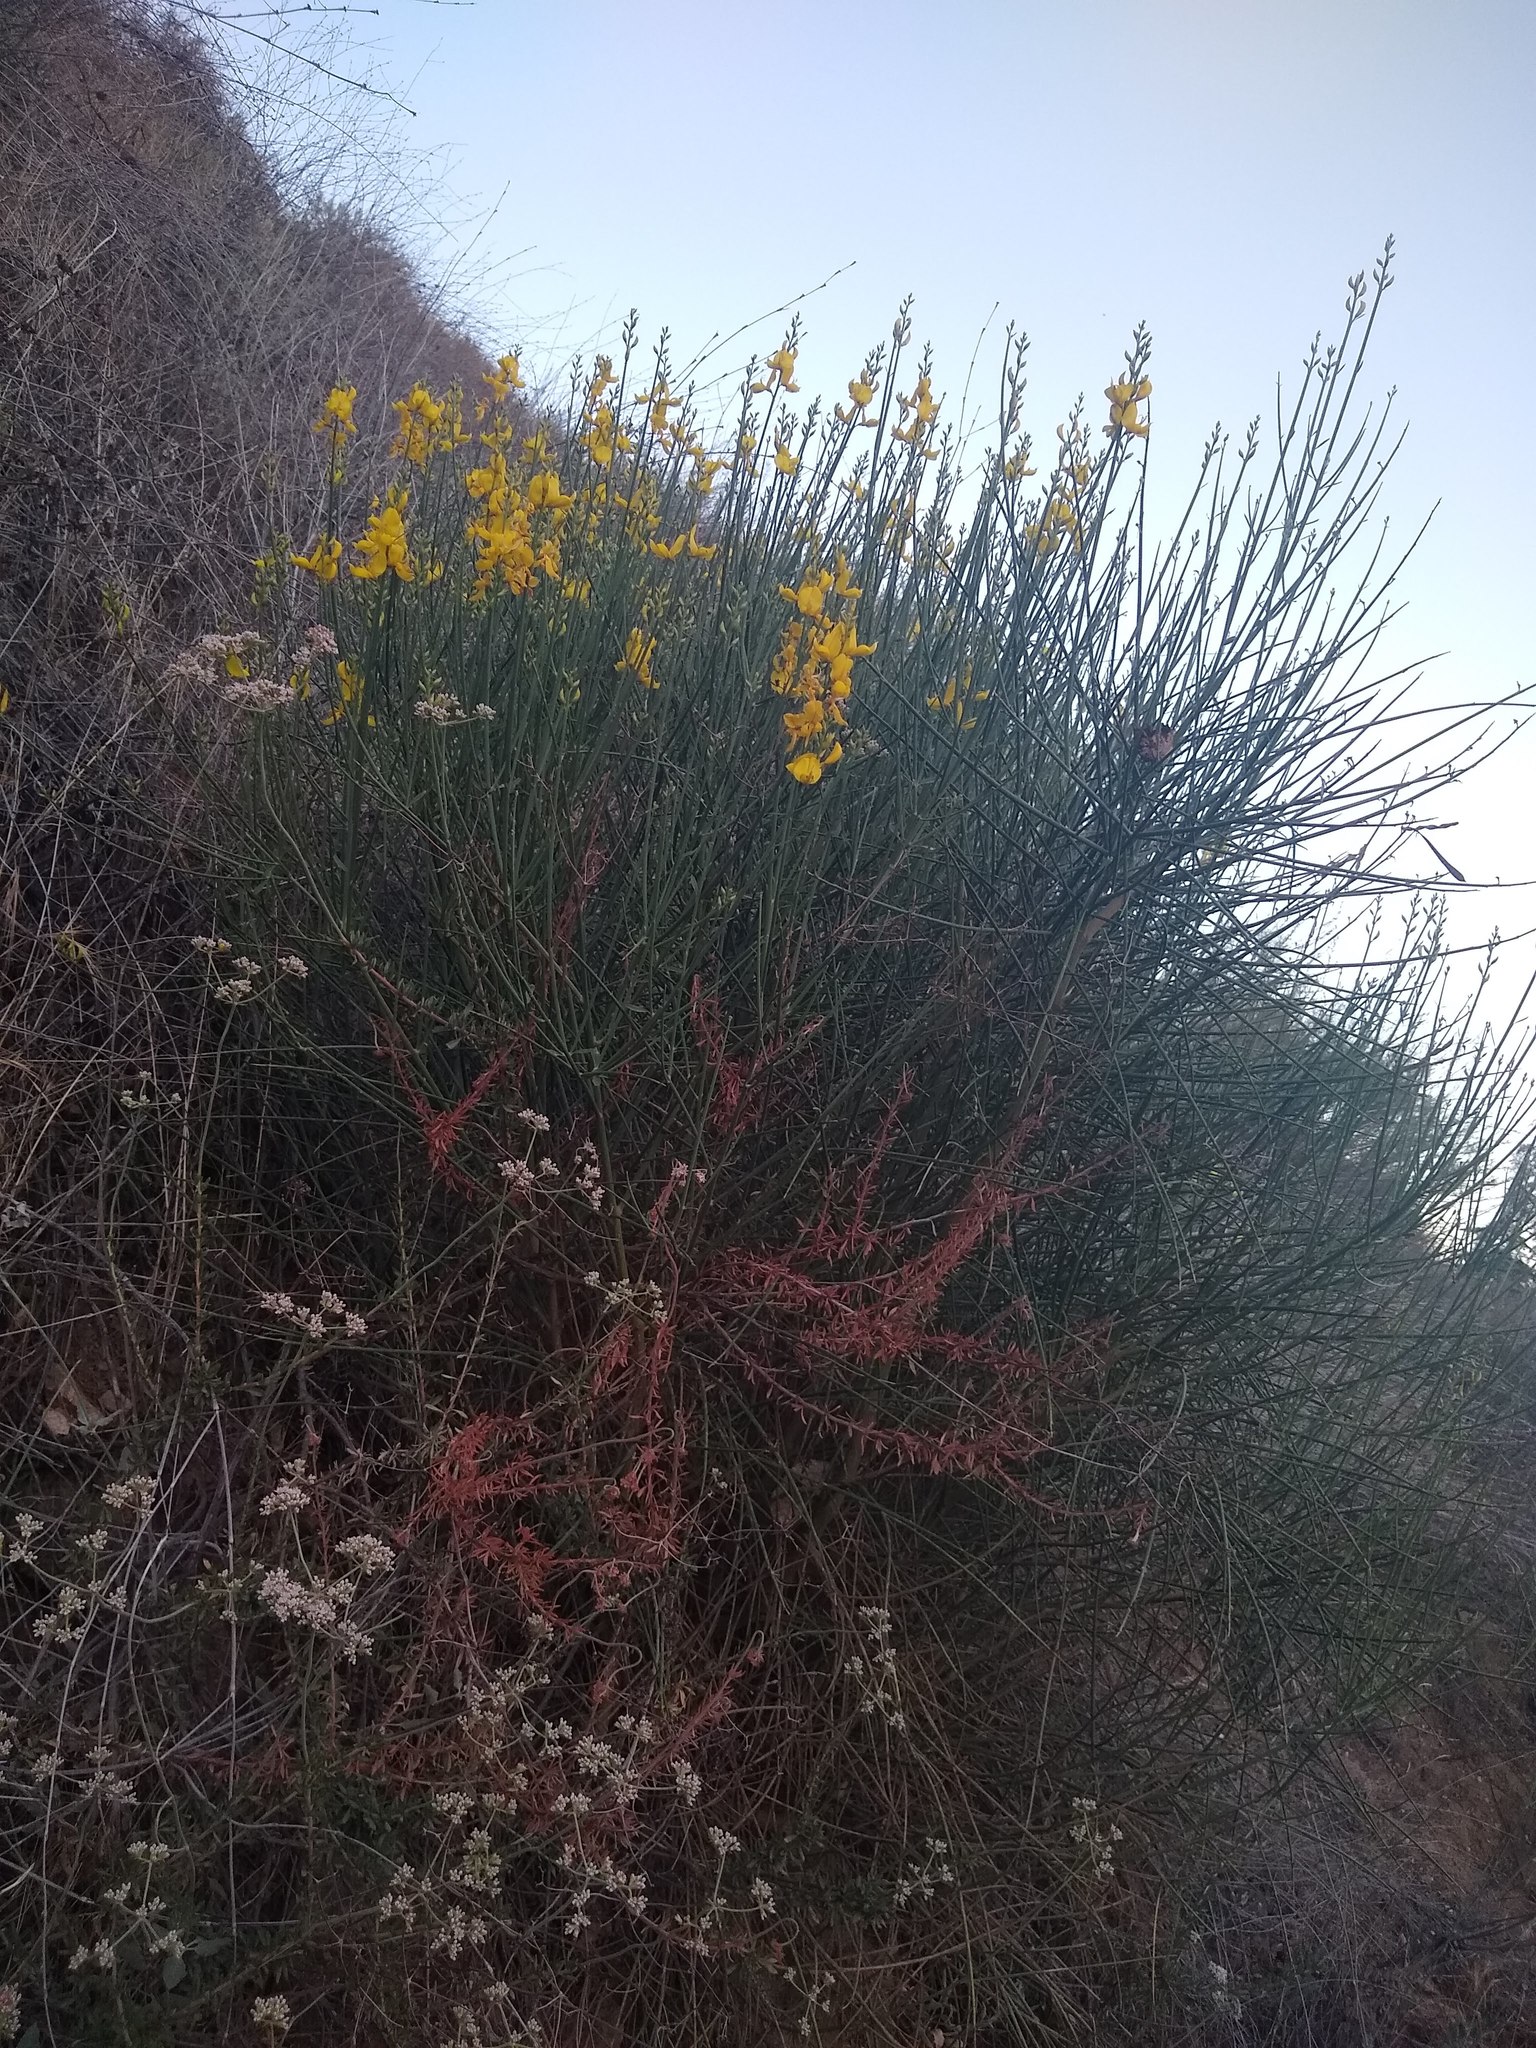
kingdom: Plantae
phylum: Tracheophyta
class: Magnoliopsida
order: Fabales
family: Fabaceae
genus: Spartium
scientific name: Spartium junceum
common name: Spanish broom
